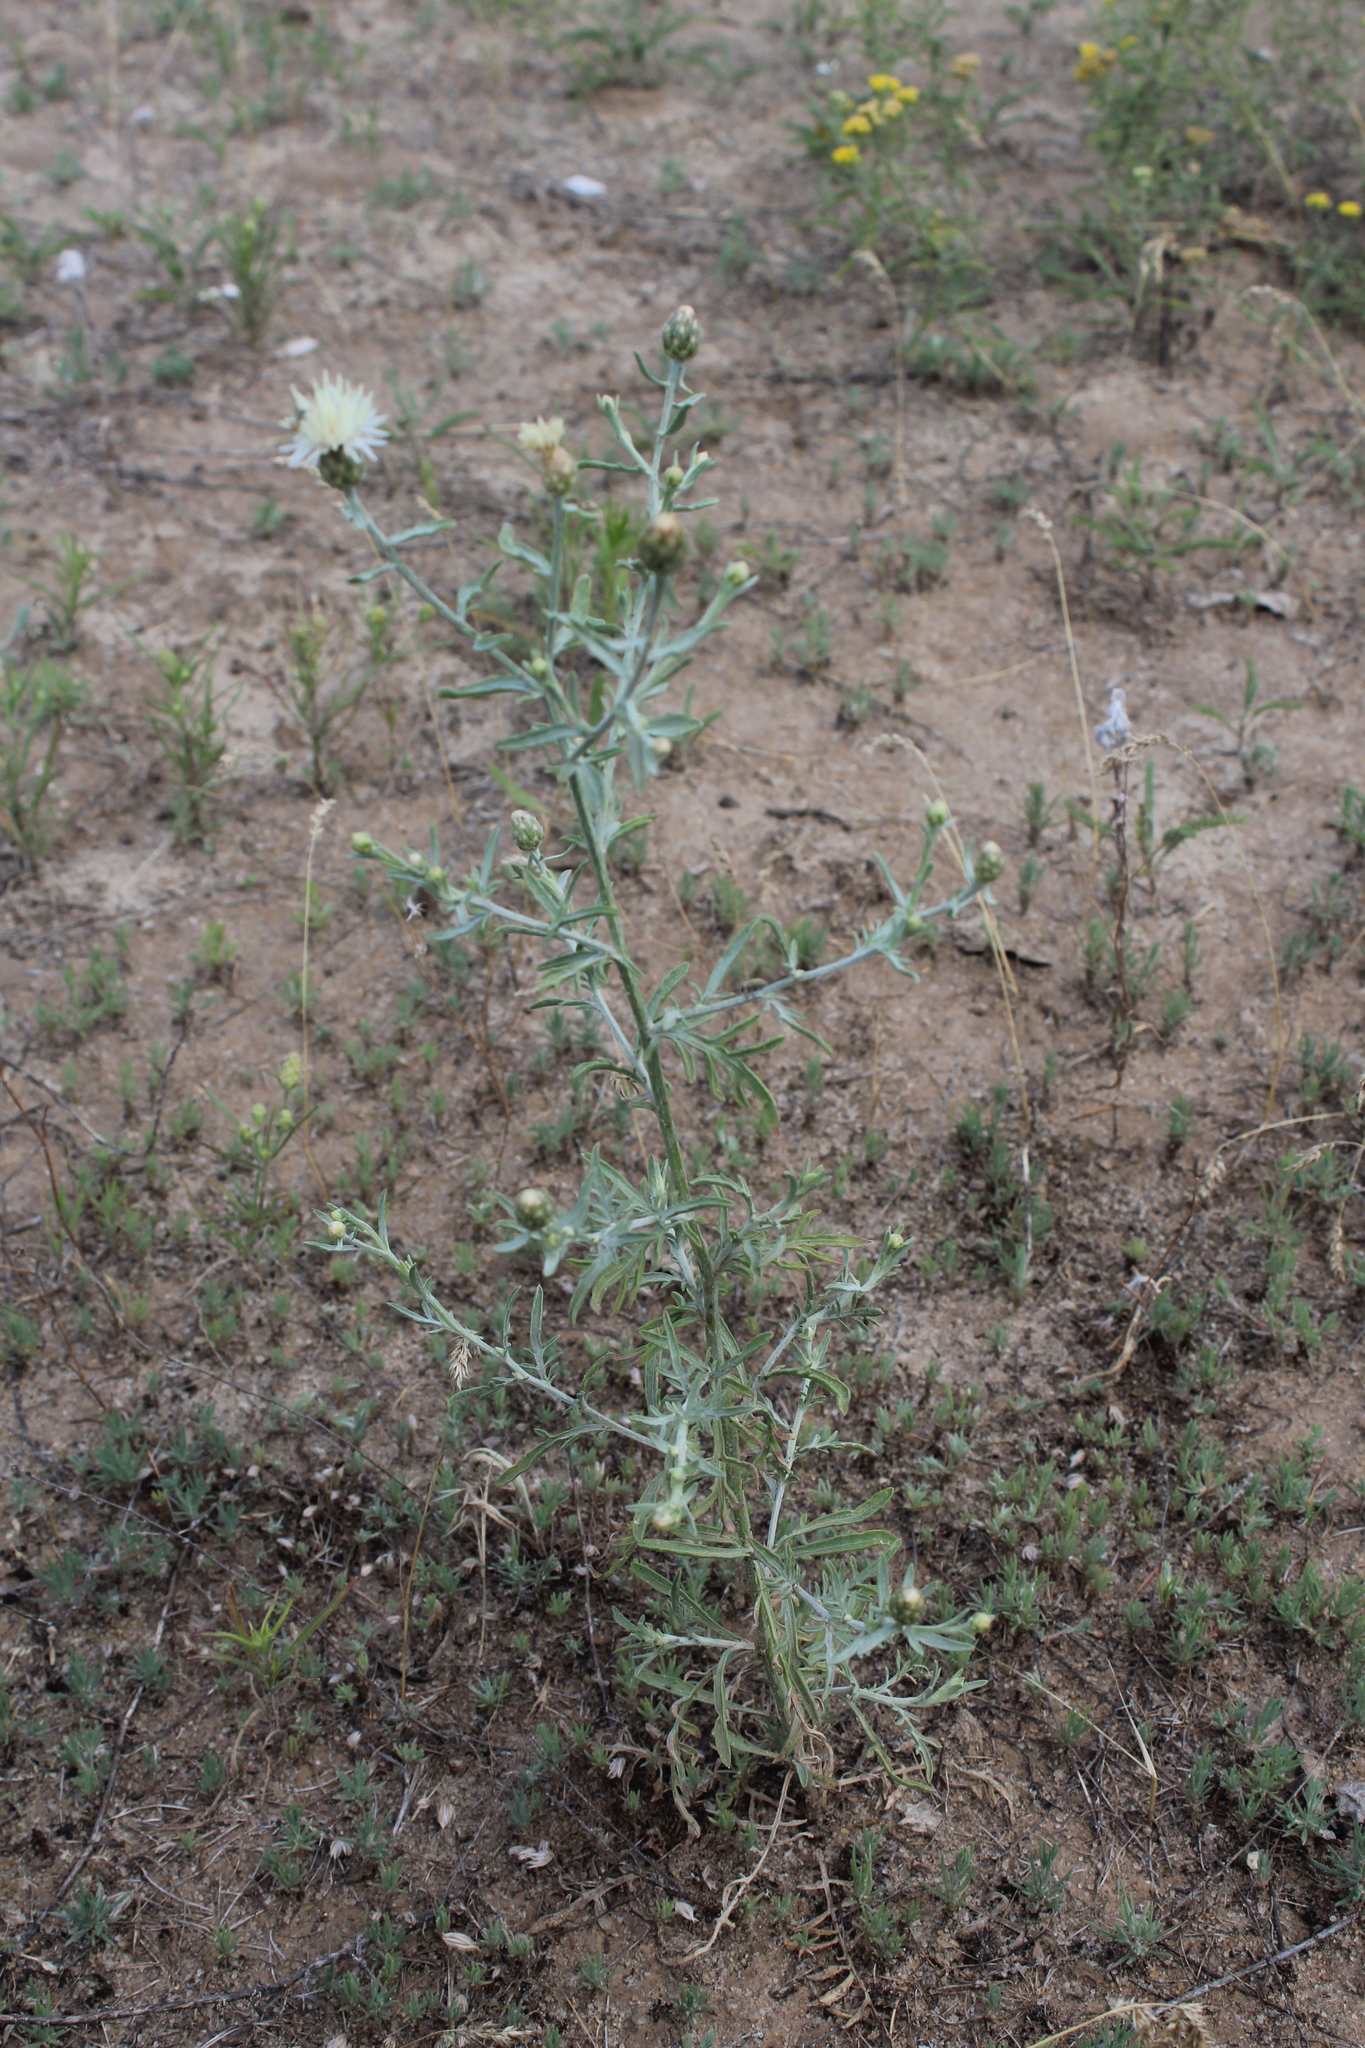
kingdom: Plantae
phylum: Tracheophyta
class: Magnoliopsida
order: Asterales
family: Asteraceae
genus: Centaurea
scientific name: Centaurea arenaria
